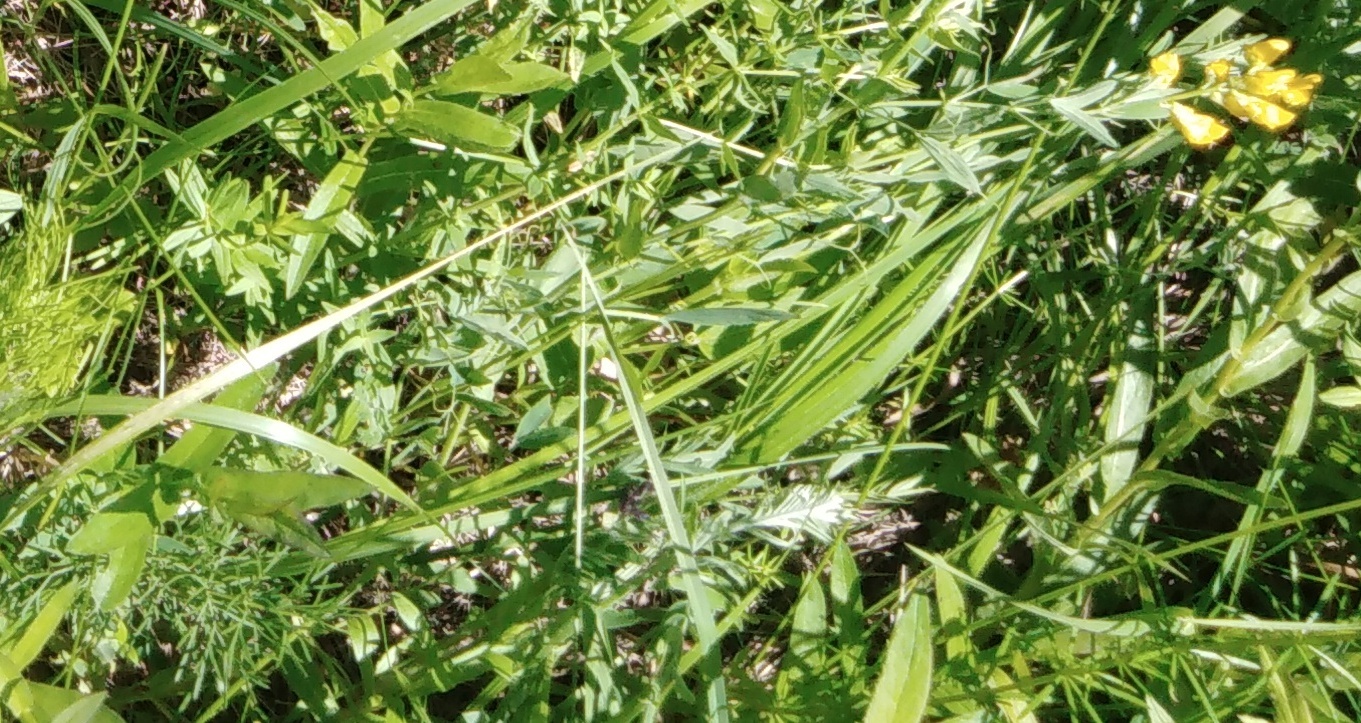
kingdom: Plantae
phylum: Tracheophyta
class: Magnoliopsida
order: Fabales
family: Fabaceae
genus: Lathyrus
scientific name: Lathyrus pratensis
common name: Meadow vetchling
